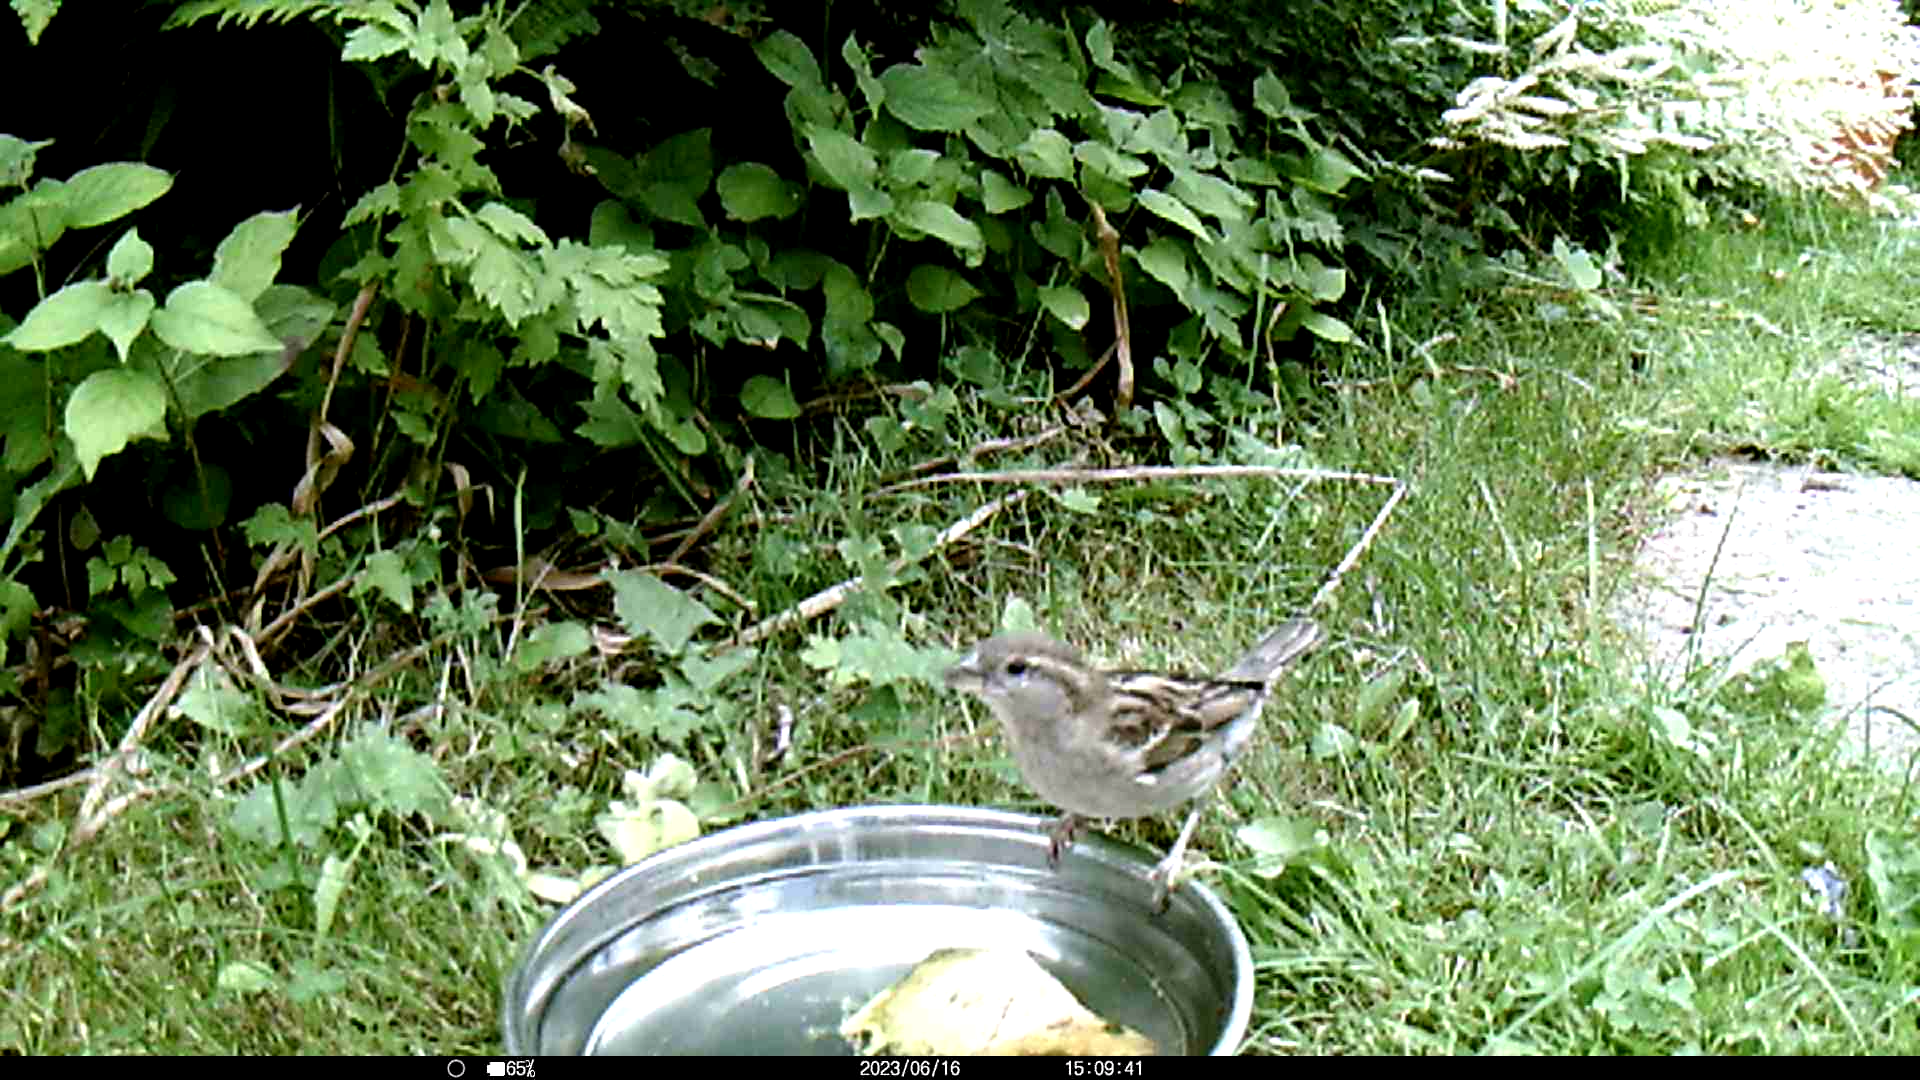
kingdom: Animalia
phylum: Chordata
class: Aves
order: Passeriformes
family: Passeridae
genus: Passer
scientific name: Passer domesticus
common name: House sparrow
